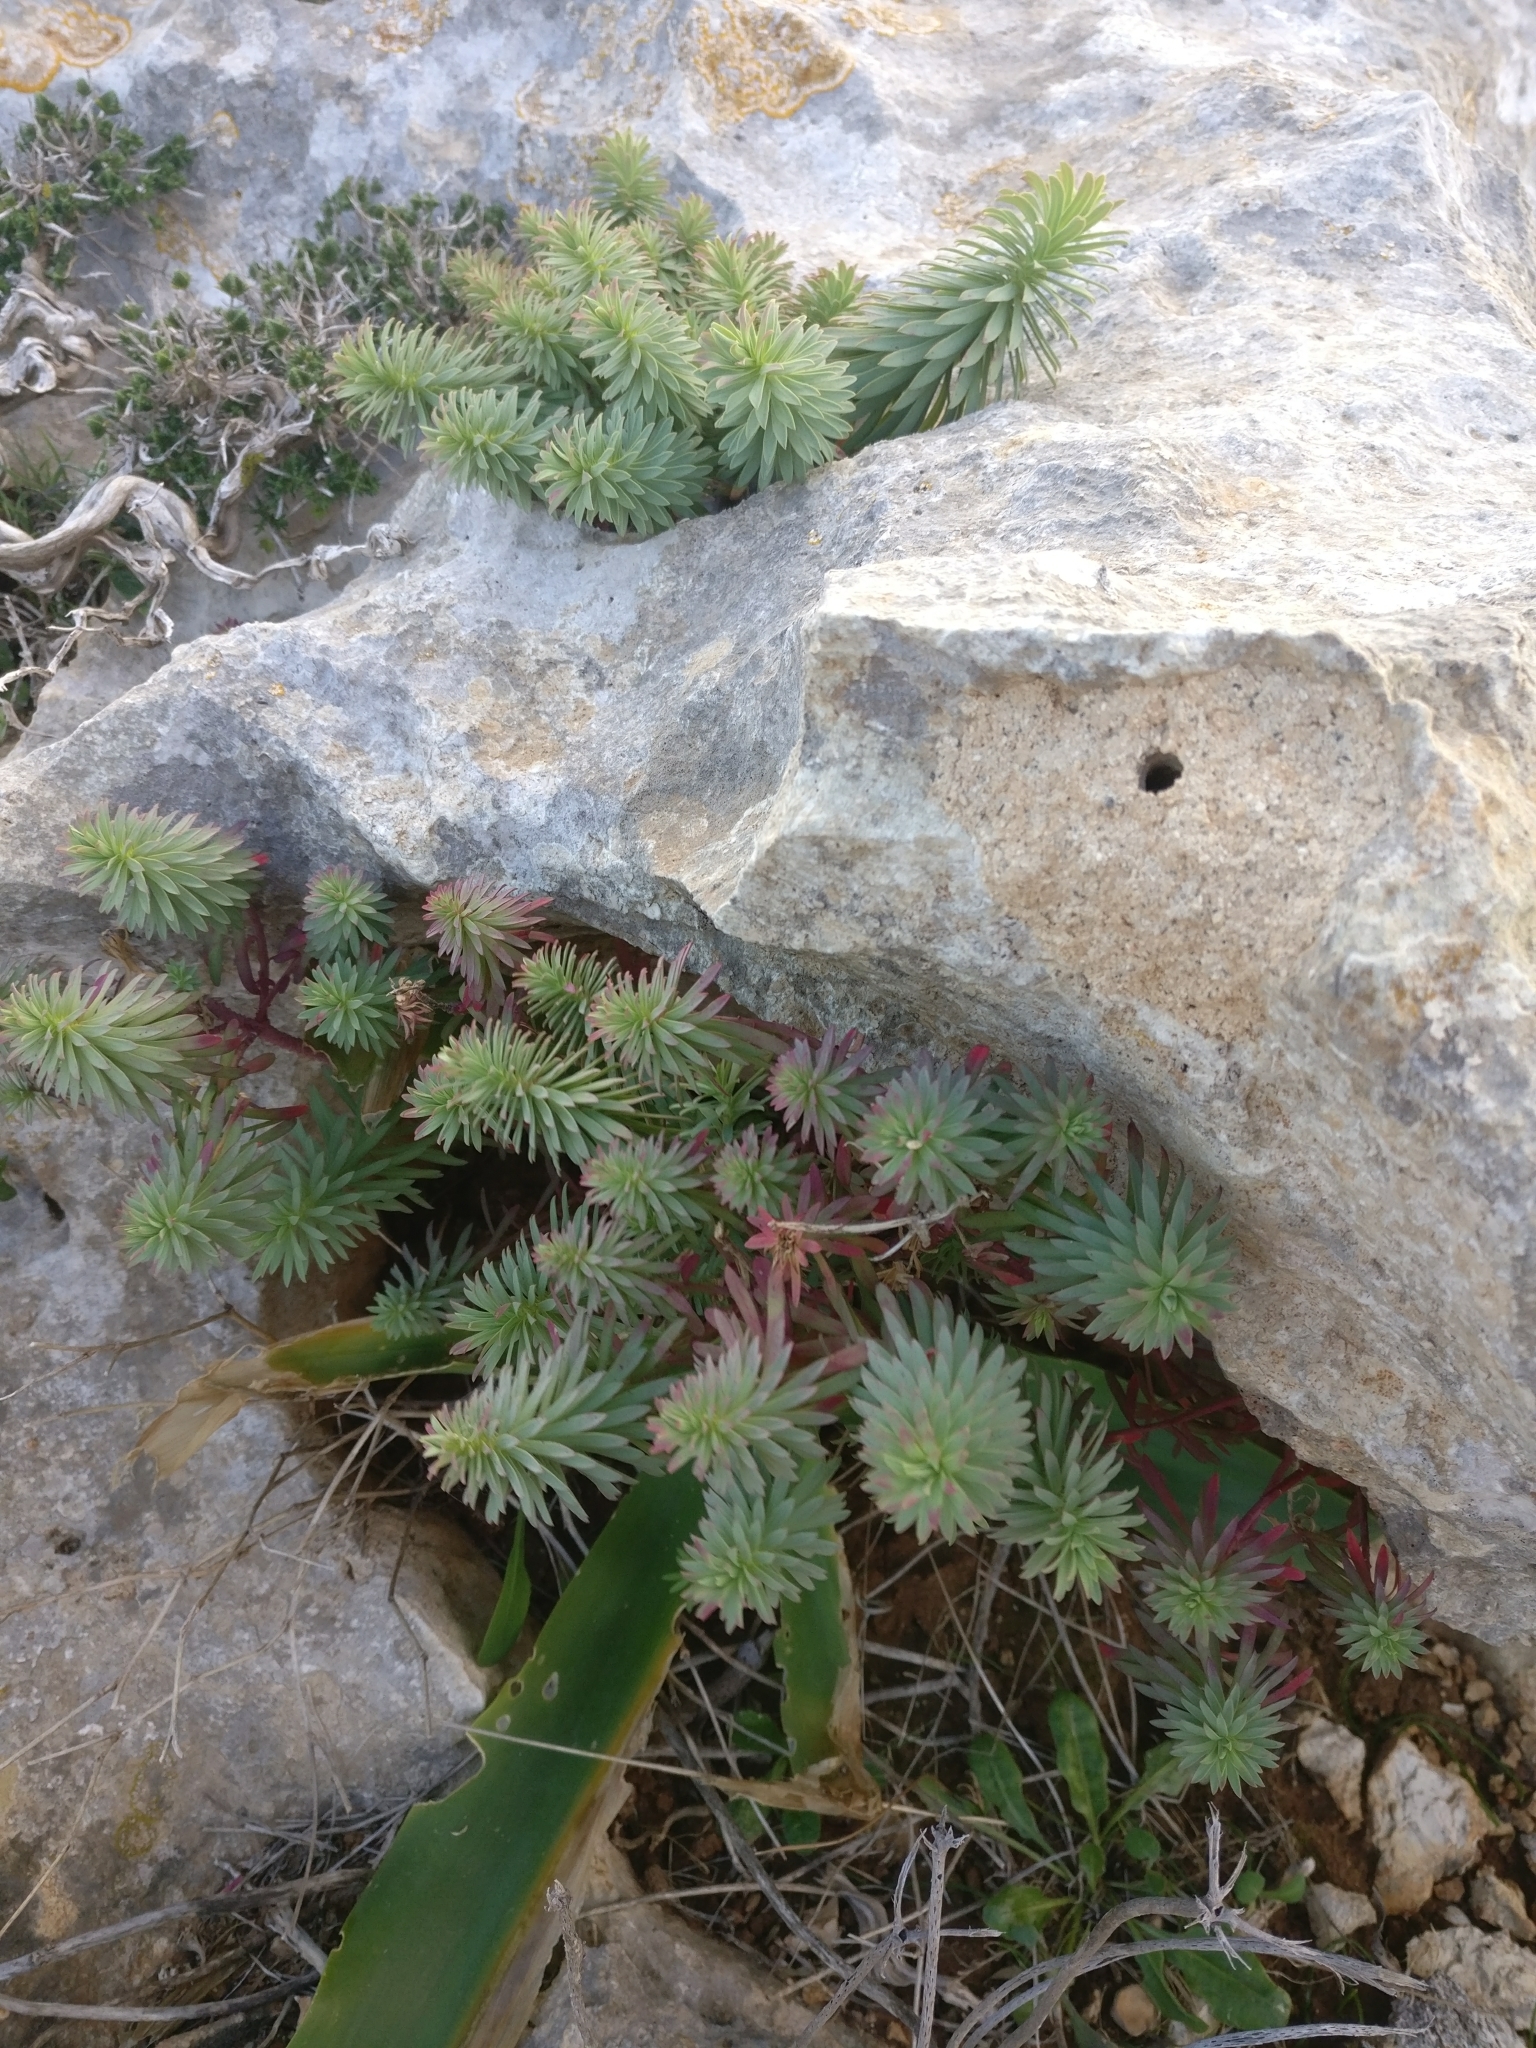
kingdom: Plantae
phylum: Tracheophyta
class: Magnoliopsida
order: Malpighiales
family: Euphorbiaceae
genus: Euphorbia
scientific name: Euphorbia segetalis
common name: Corn spurge
